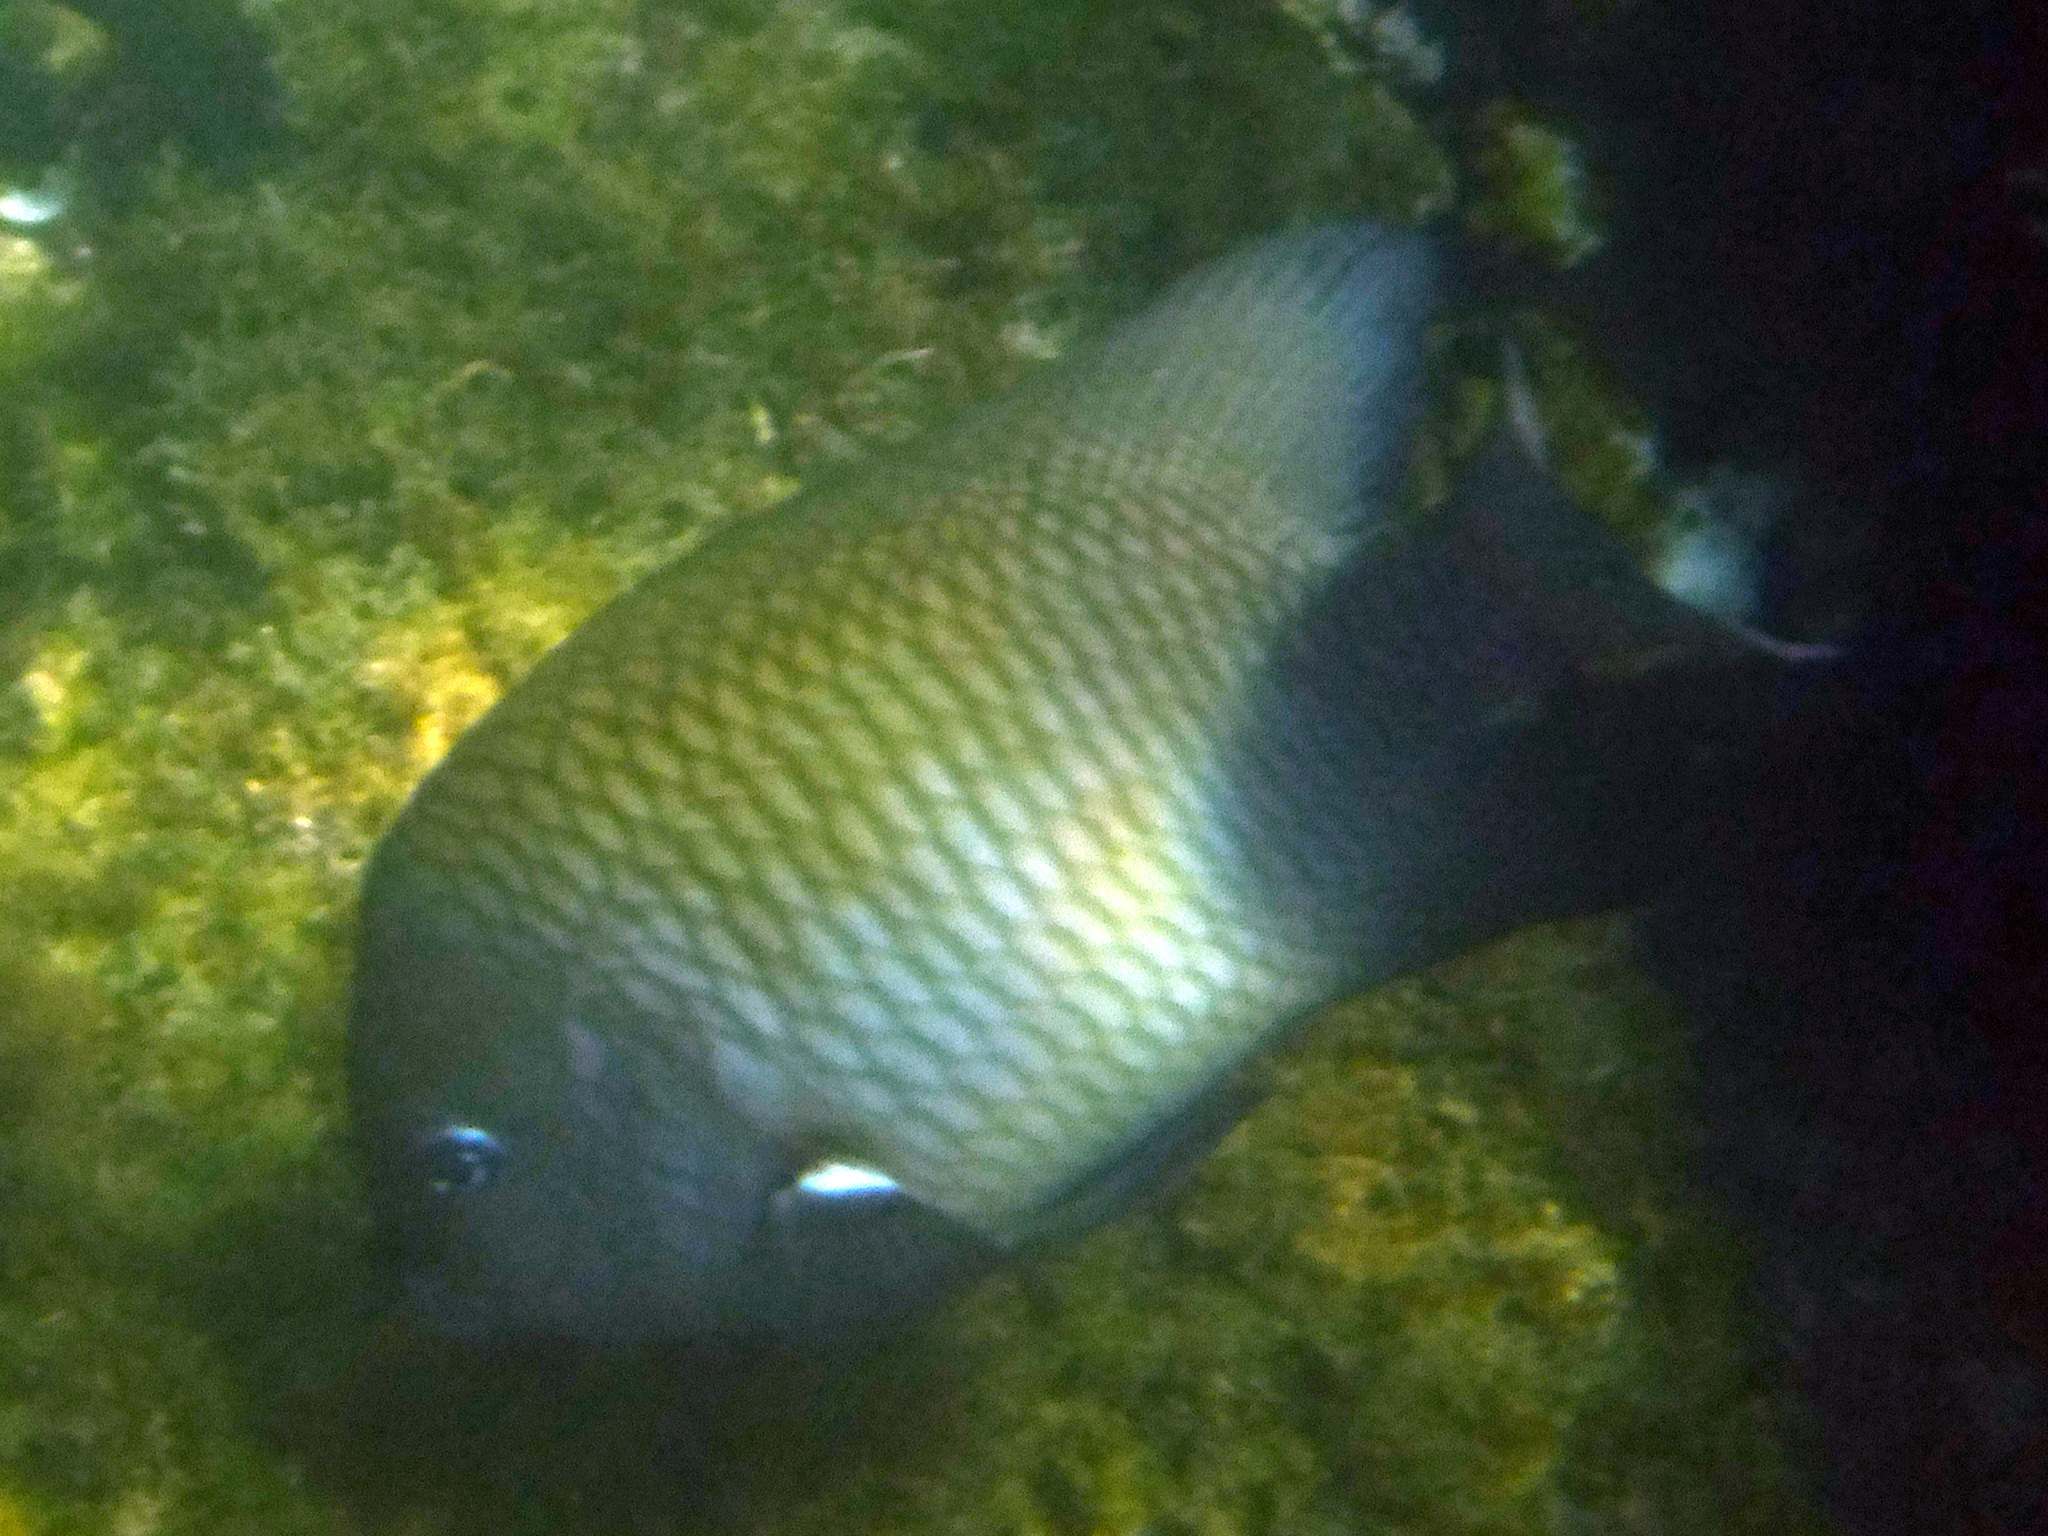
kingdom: Animalia
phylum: Chordata
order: Perciformes
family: Pomacentridae
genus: Stegastes
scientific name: Stegastes acapulcoensis
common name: Acapulco damselfish
